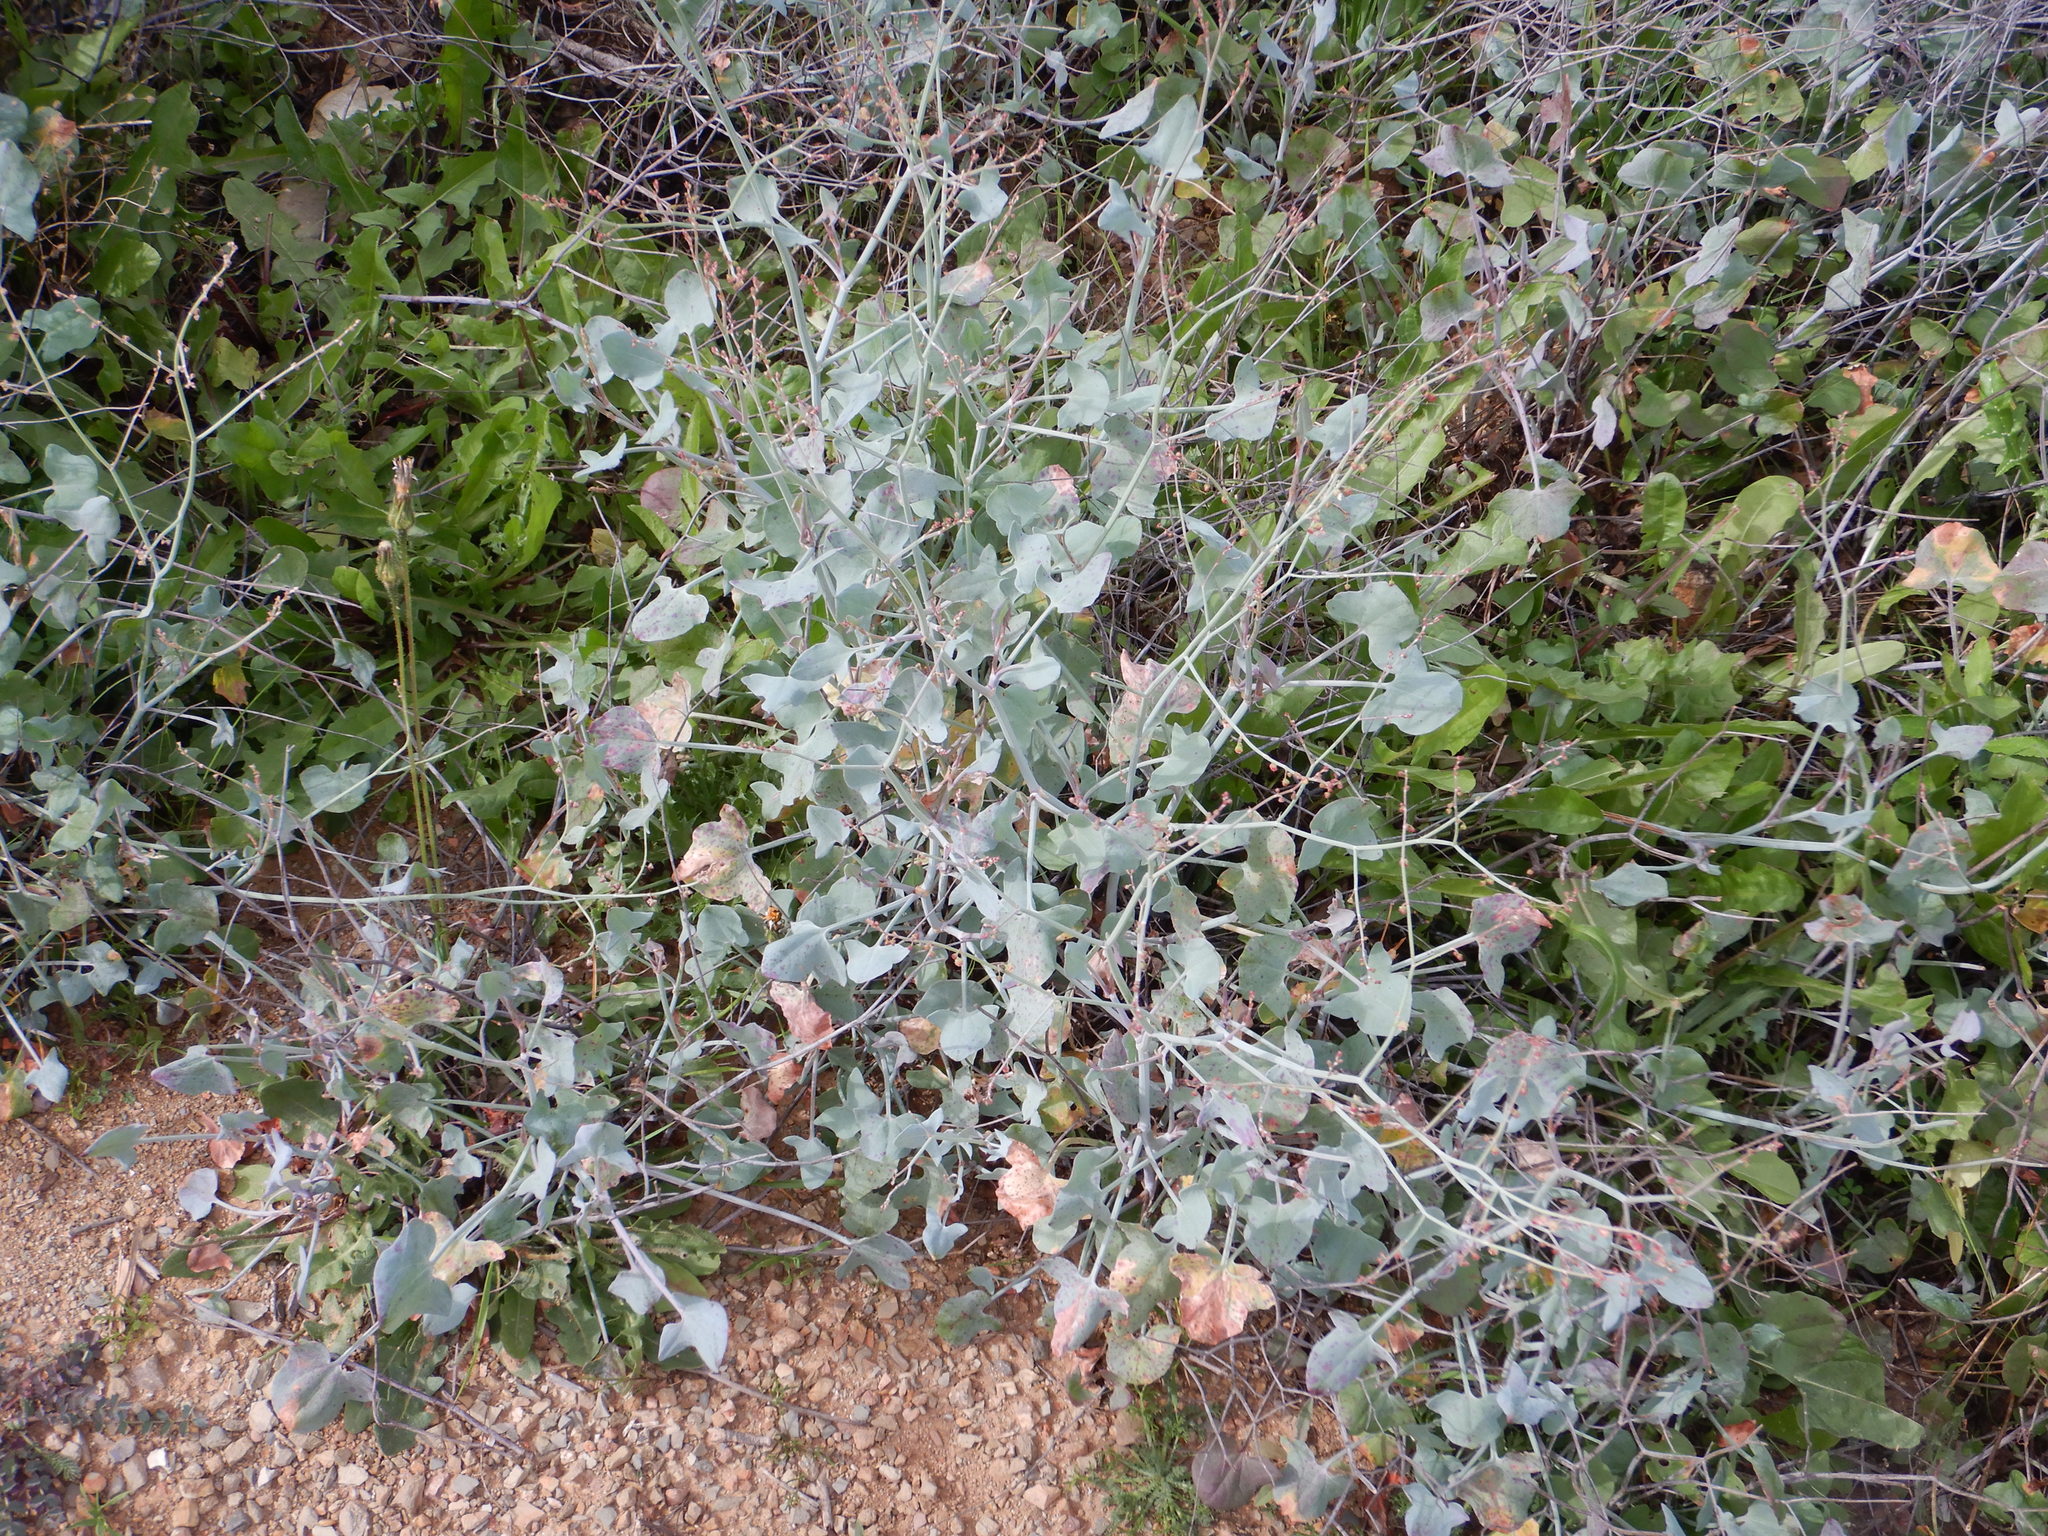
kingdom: Plantae
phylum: Tracheophyta
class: Magnoliopsida
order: Caryophyllales
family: Polygonaceae
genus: Rumex
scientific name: Rumex induratus
